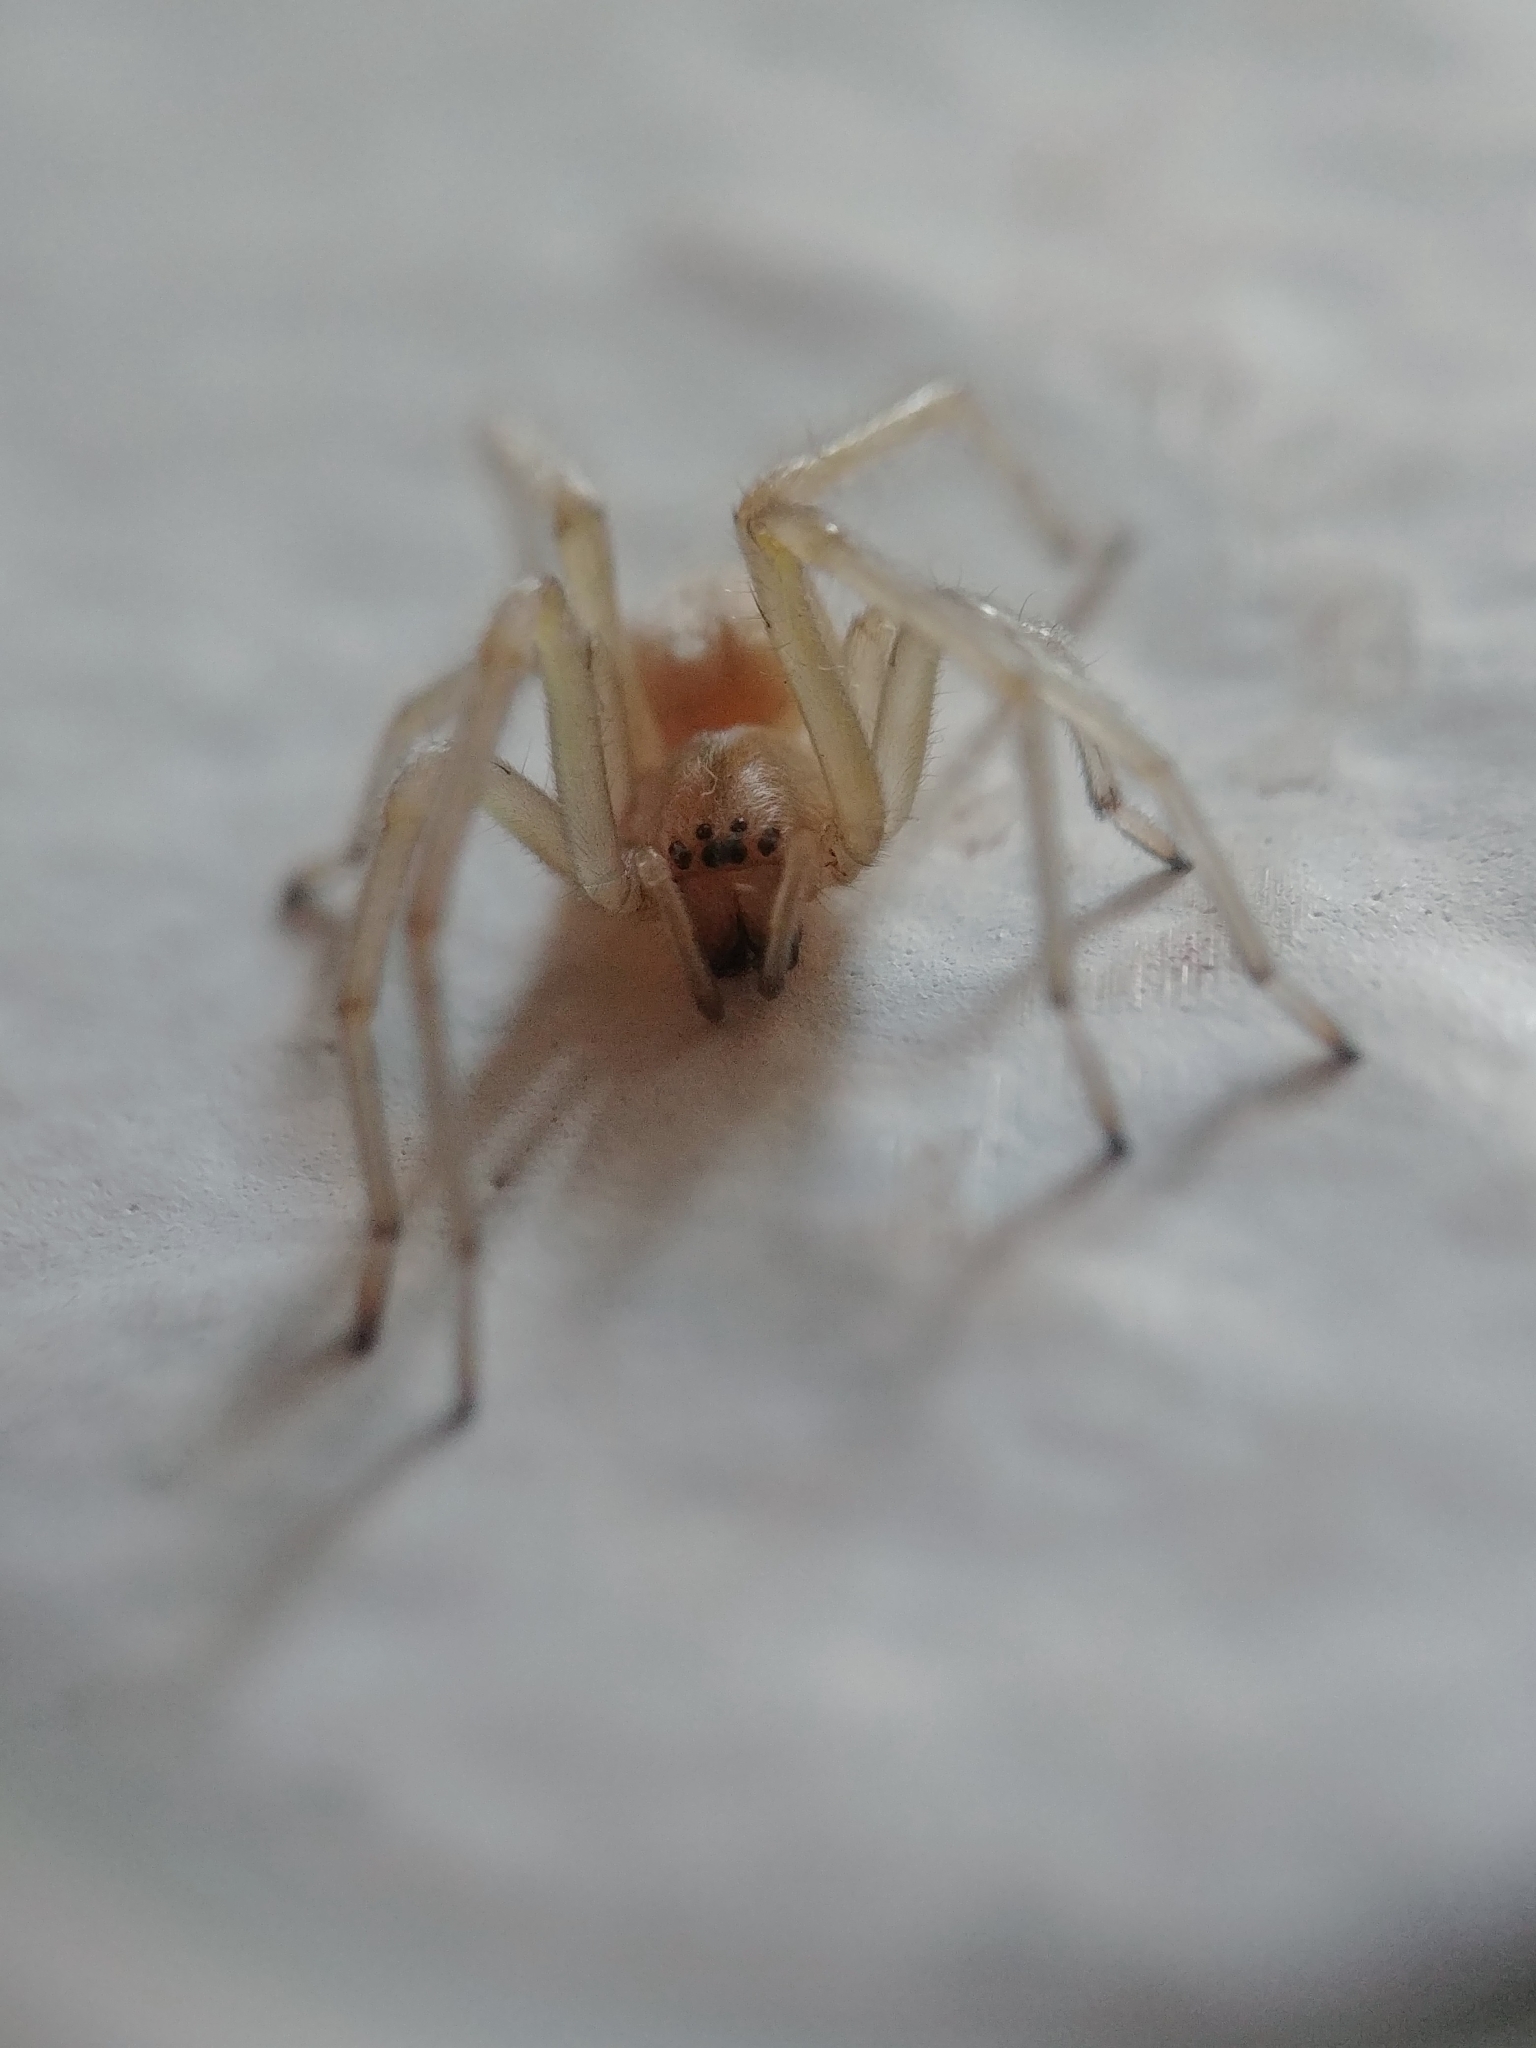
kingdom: Animalia
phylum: Arthropoda
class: Arachnida
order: Araneae
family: Cheiracanthiidae
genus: Cheiracanthium
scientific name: Cheiracanthium mildei
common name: Northern yellow sac spider
